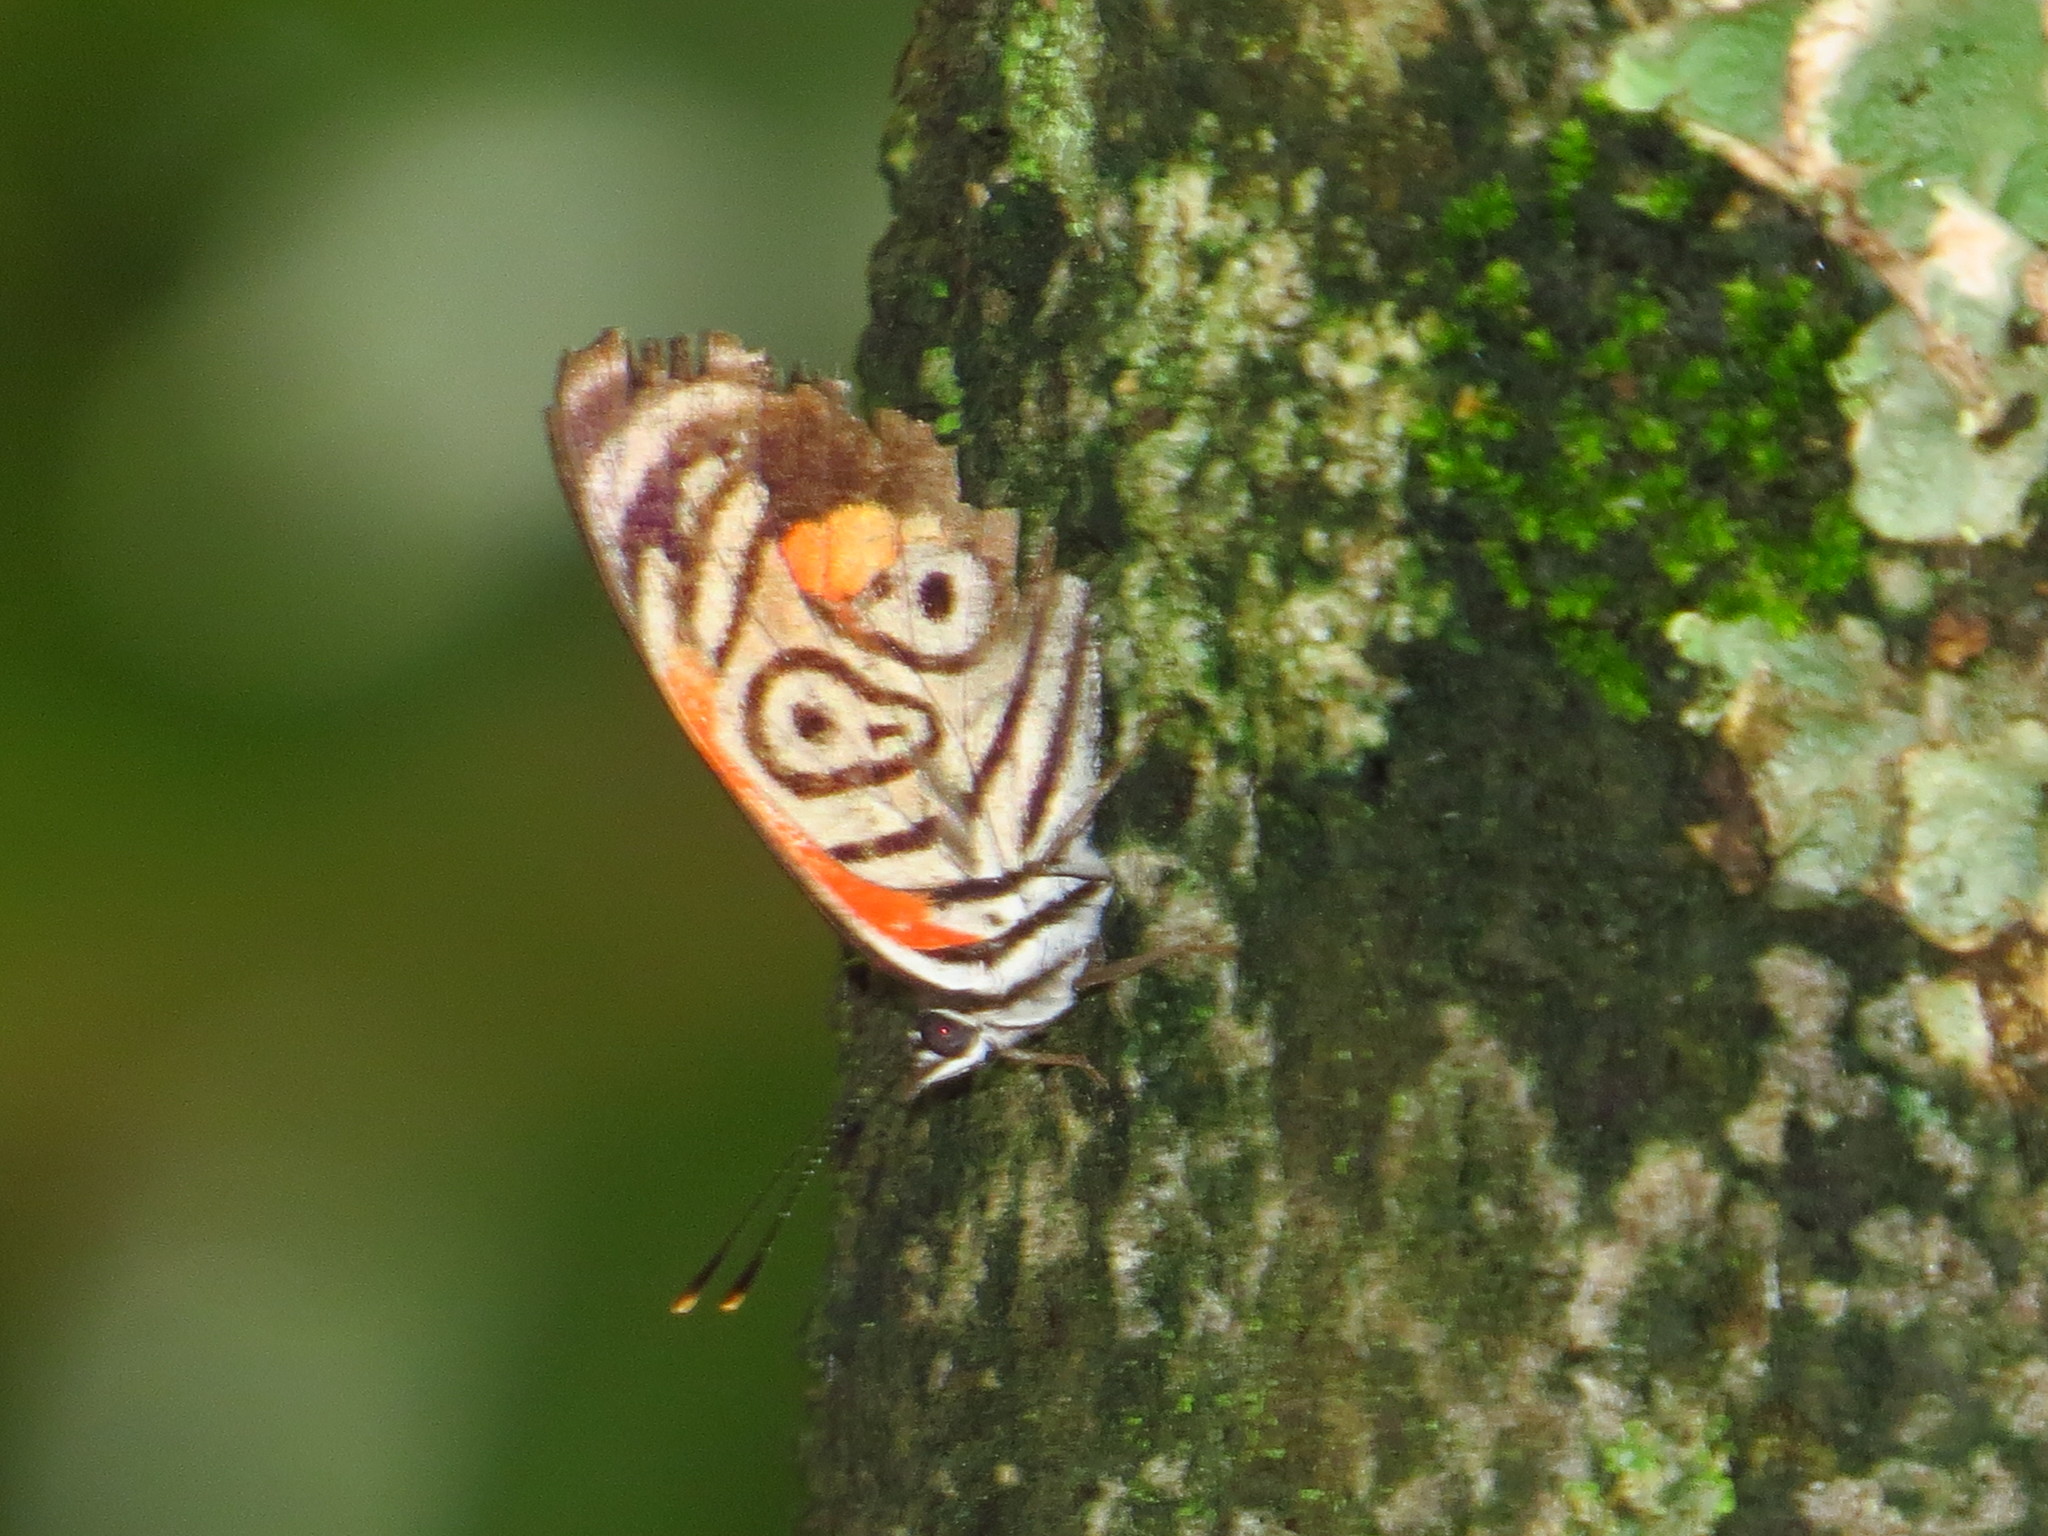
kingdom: Animalia
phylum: Arthropoda
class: Insecta
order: Lepidoptera
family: Nymphalidae
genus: Diaethria
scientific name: Diaethria clymena
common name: Widespread eighty-eight
